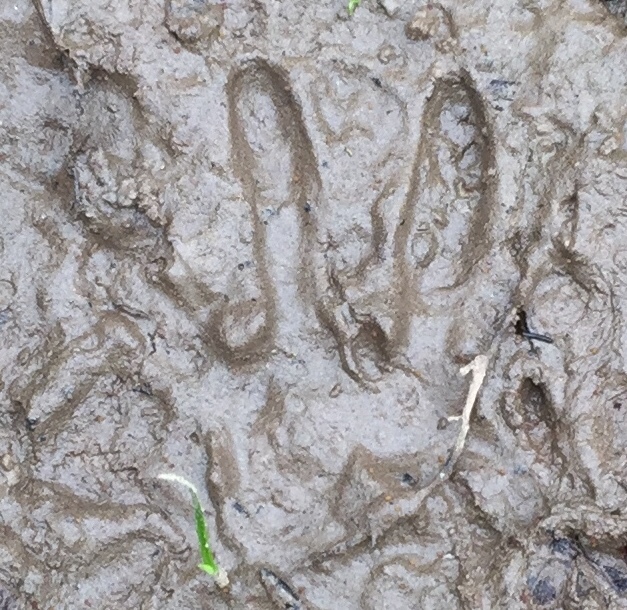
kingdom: Animalia
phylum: Chordata
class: Mammalia
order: Carnivora
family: Procyonidae
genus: Procyon
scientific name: Procyon lotor
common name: Raccoon
